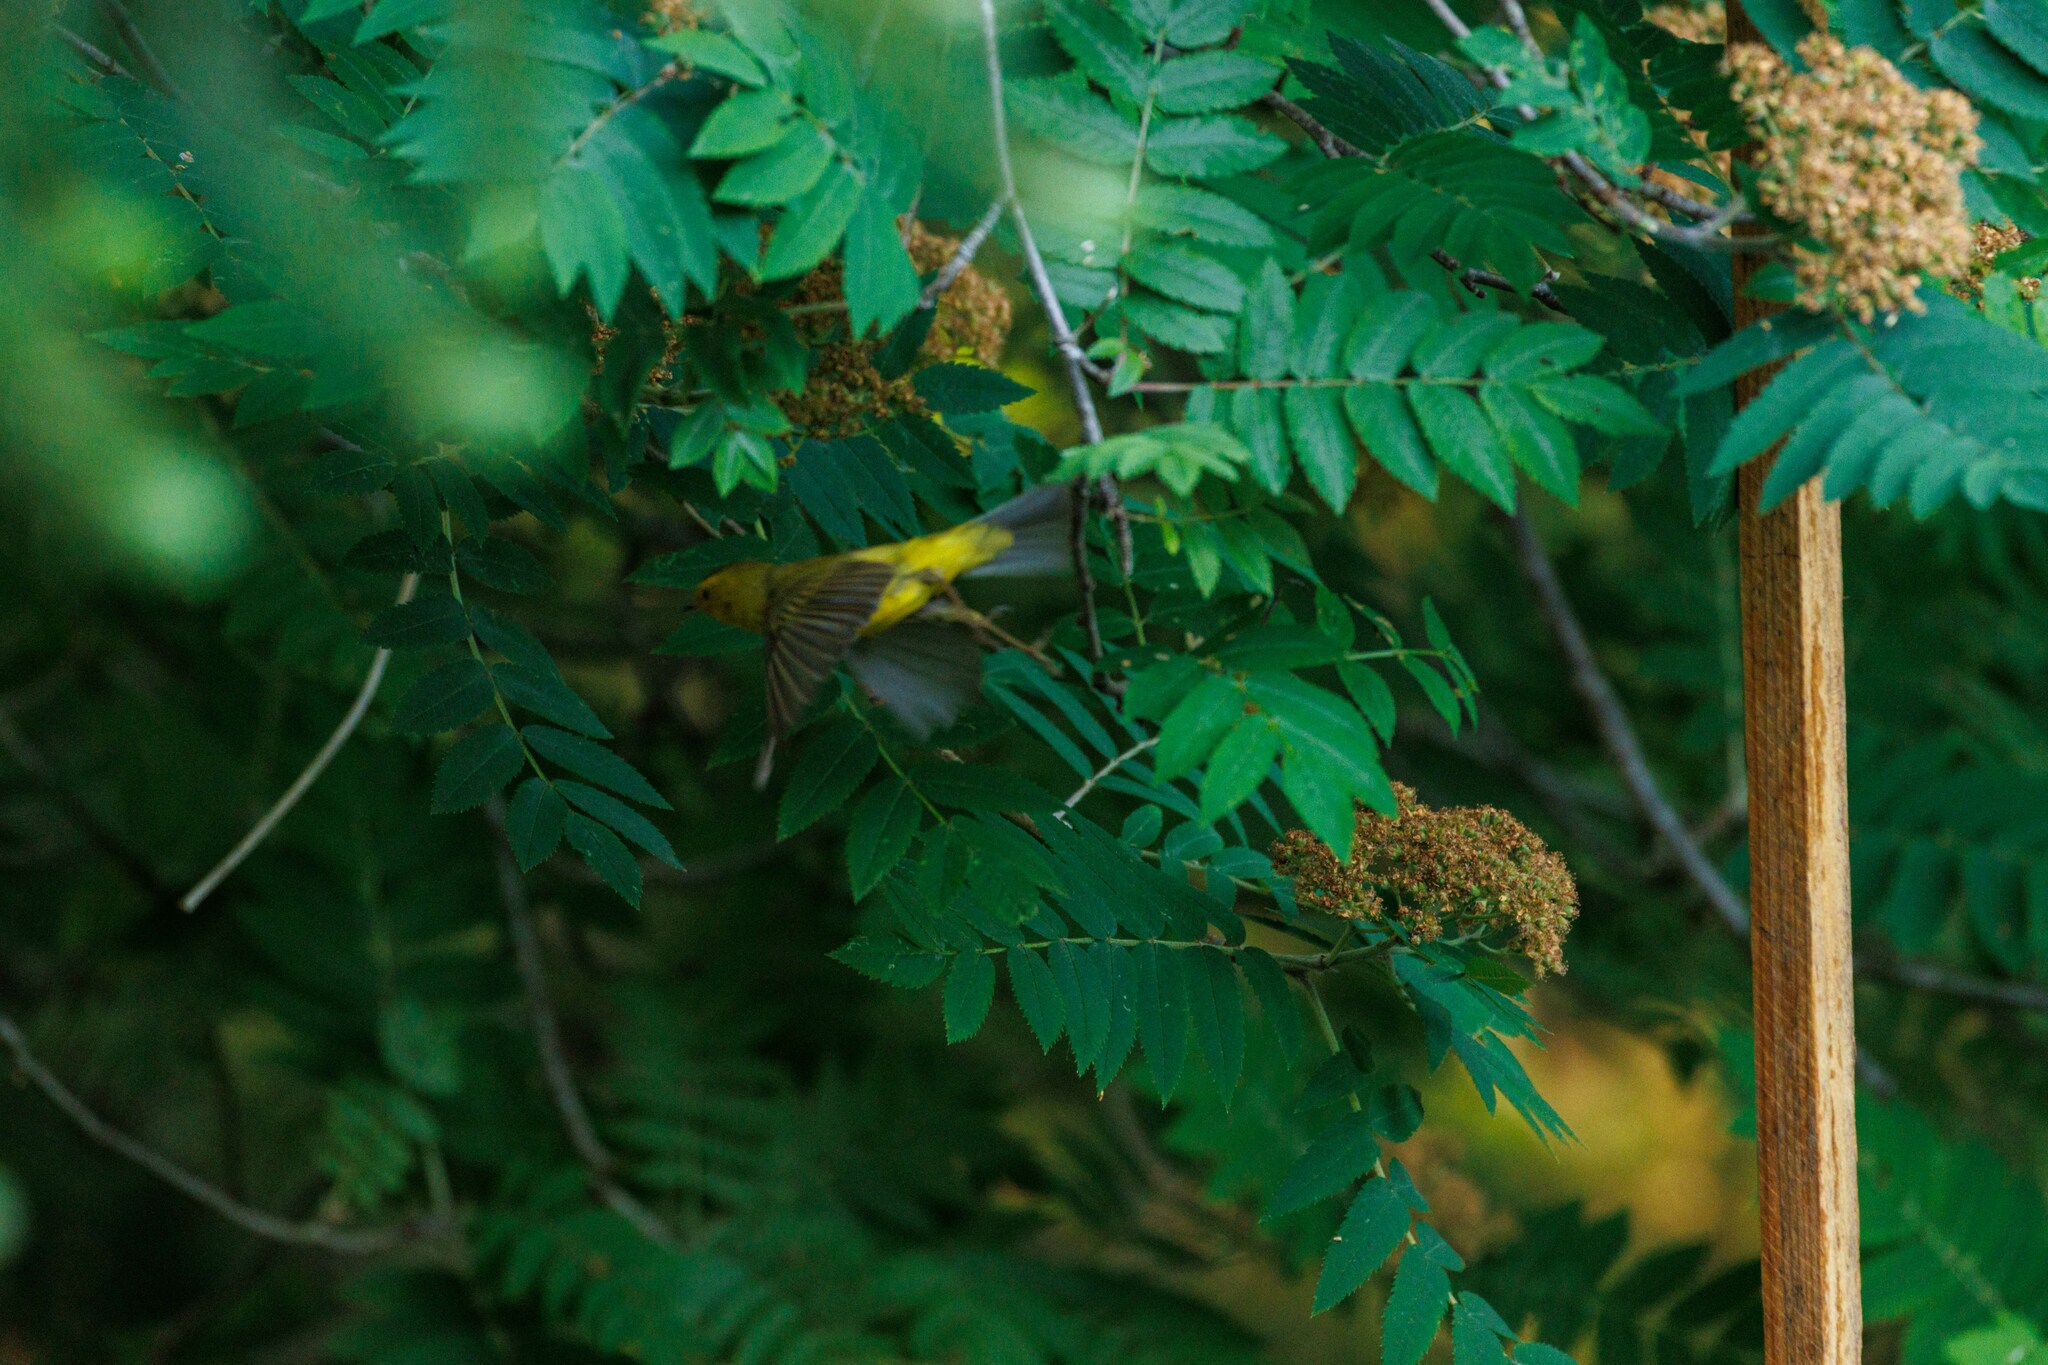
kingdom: Animalia
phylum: Chordata
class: Aves
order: Passeriformes
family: Parulidae
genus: Cardellina
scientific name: Cardellina pusilla
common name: Wilson's warbler
